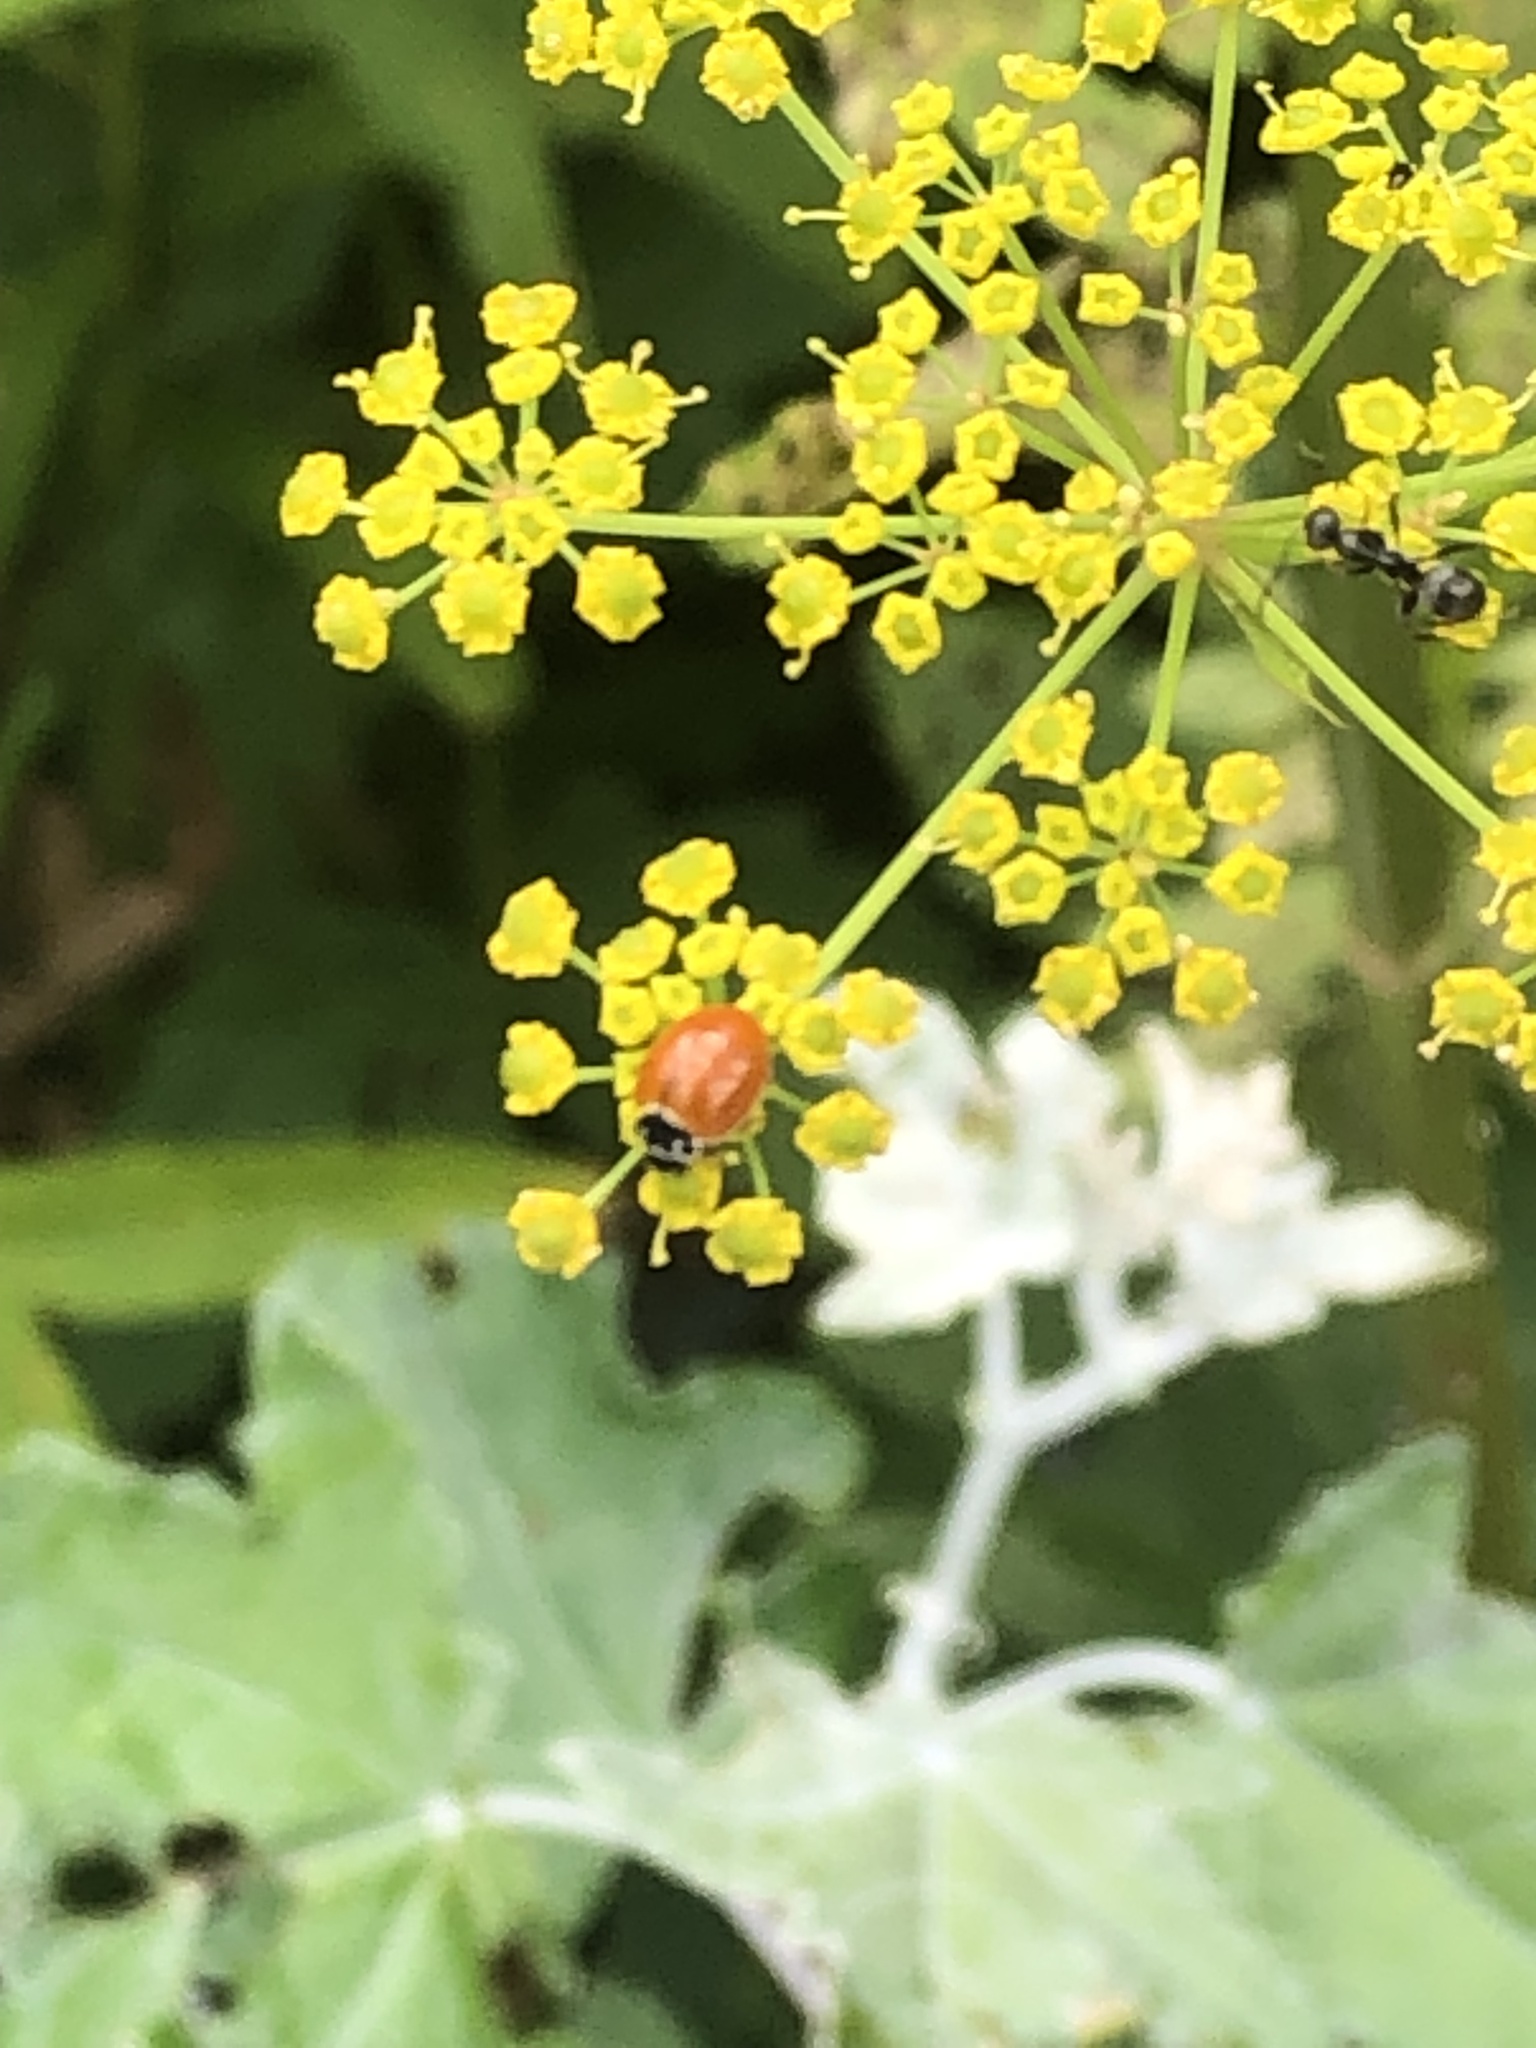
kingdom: Animalia
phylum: Arthropoda
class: Insecta
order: Coleoptera
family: Coccinellidae
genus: Cycloneda
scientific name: Cycloneda munda
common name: Polished lady beetle
